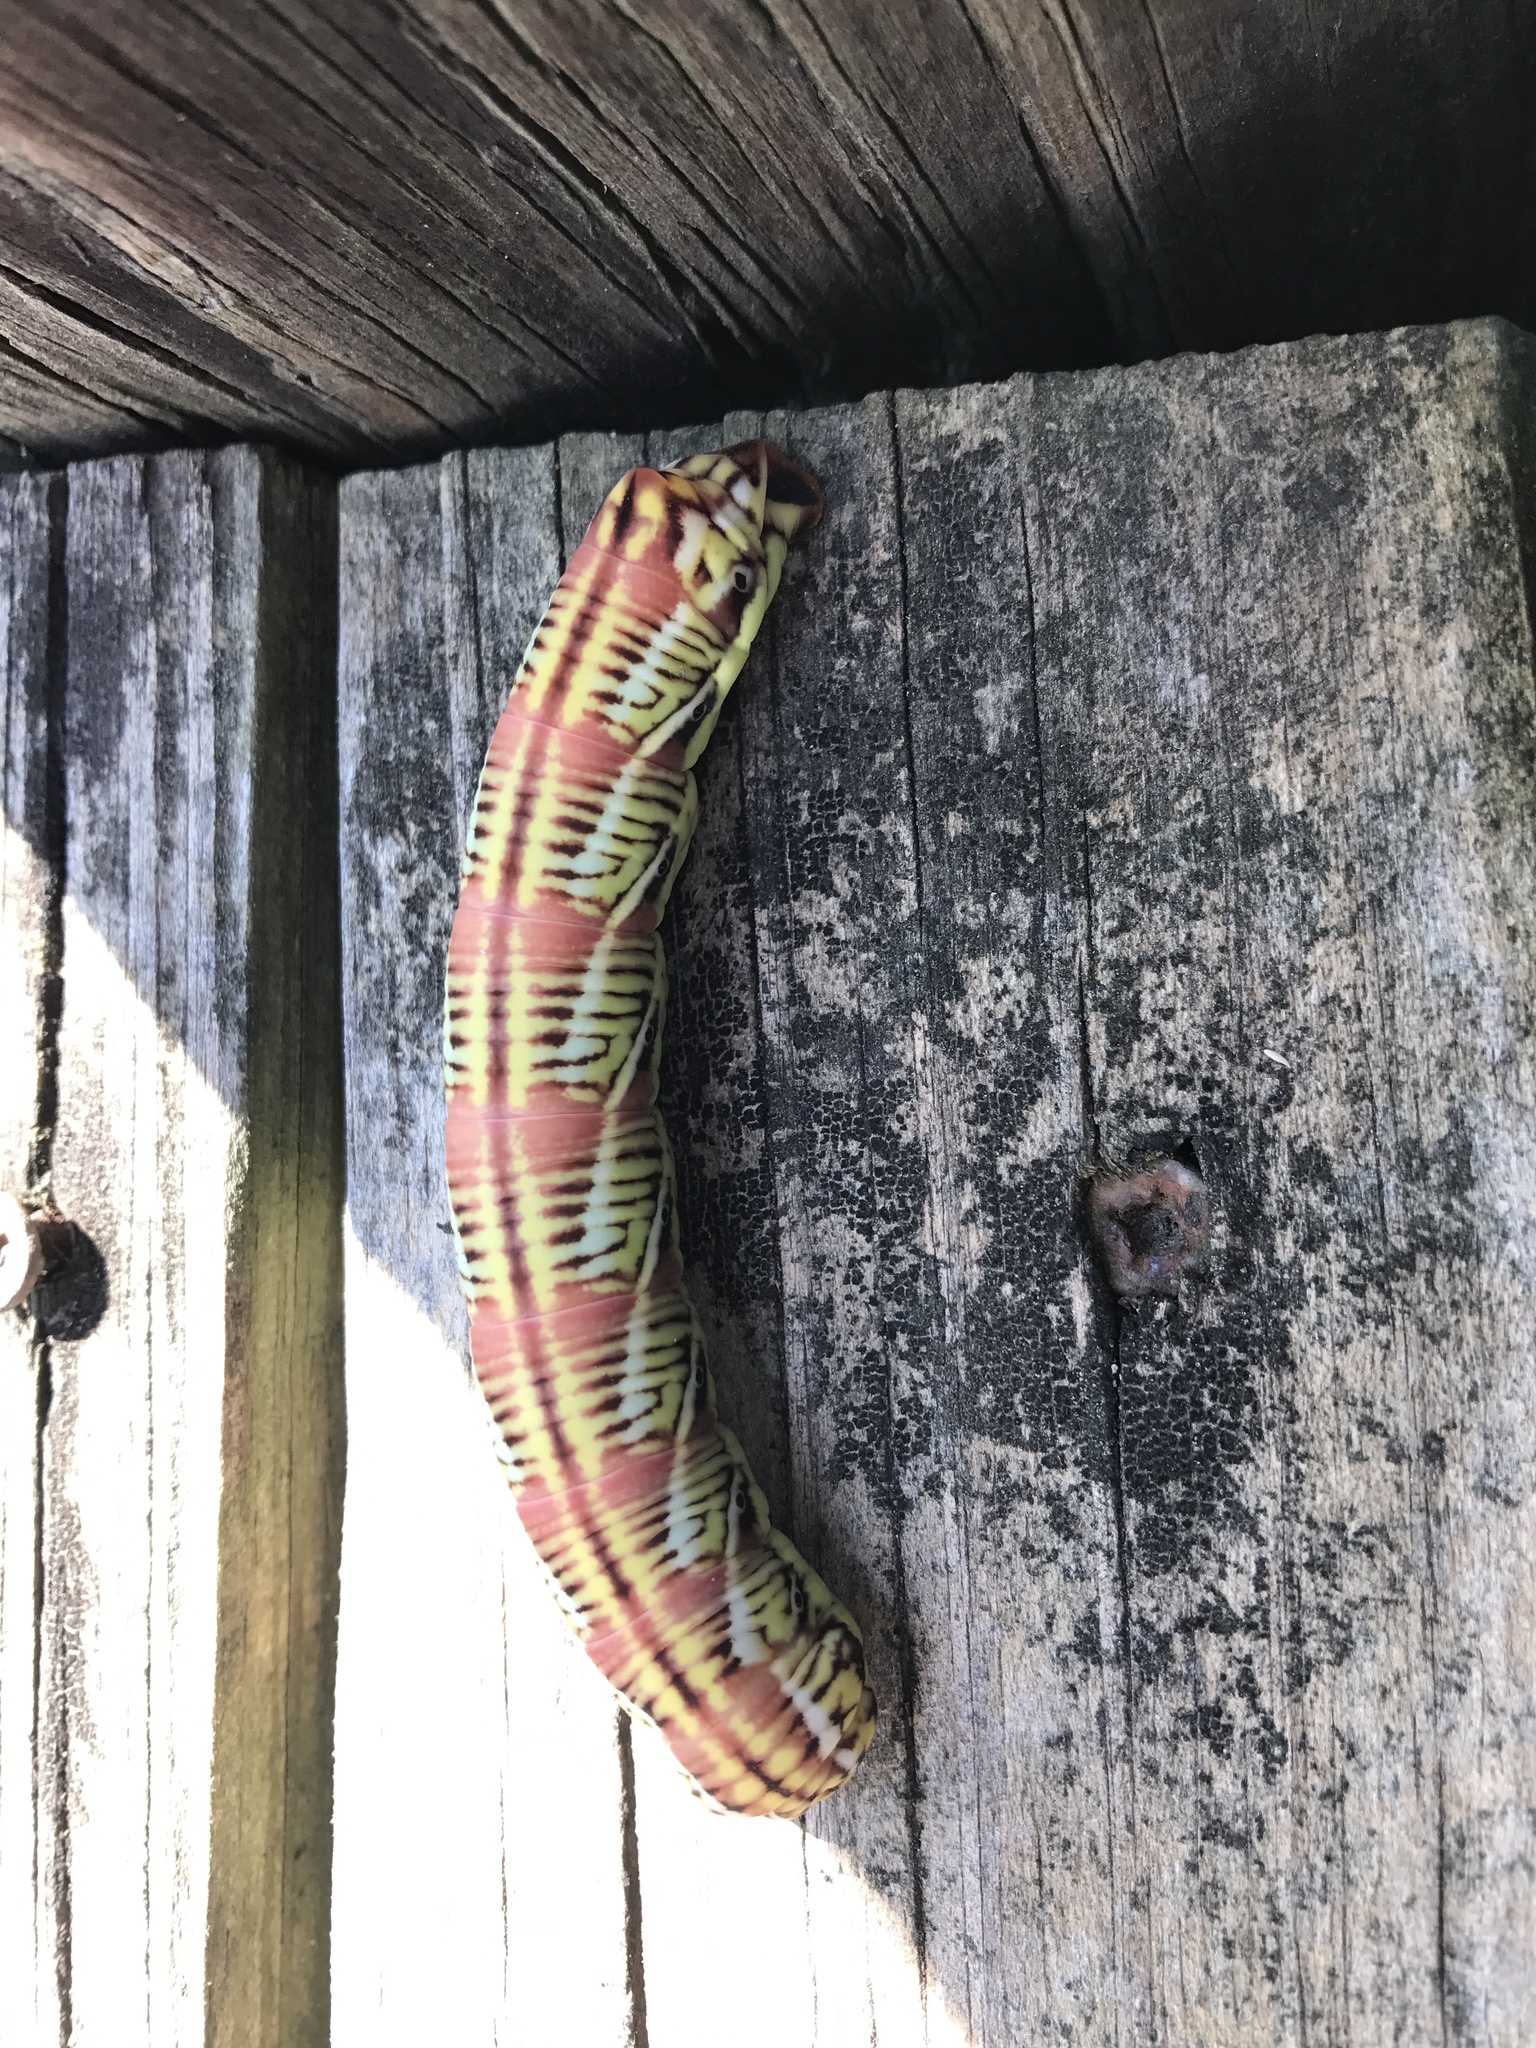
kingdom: Animalia
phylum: Arthropoda
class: Insecta
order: Lepidoptera
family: Sphingidae
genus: Eumorpha
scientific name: Eumorpha fasciatus
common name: Banded sphinx
